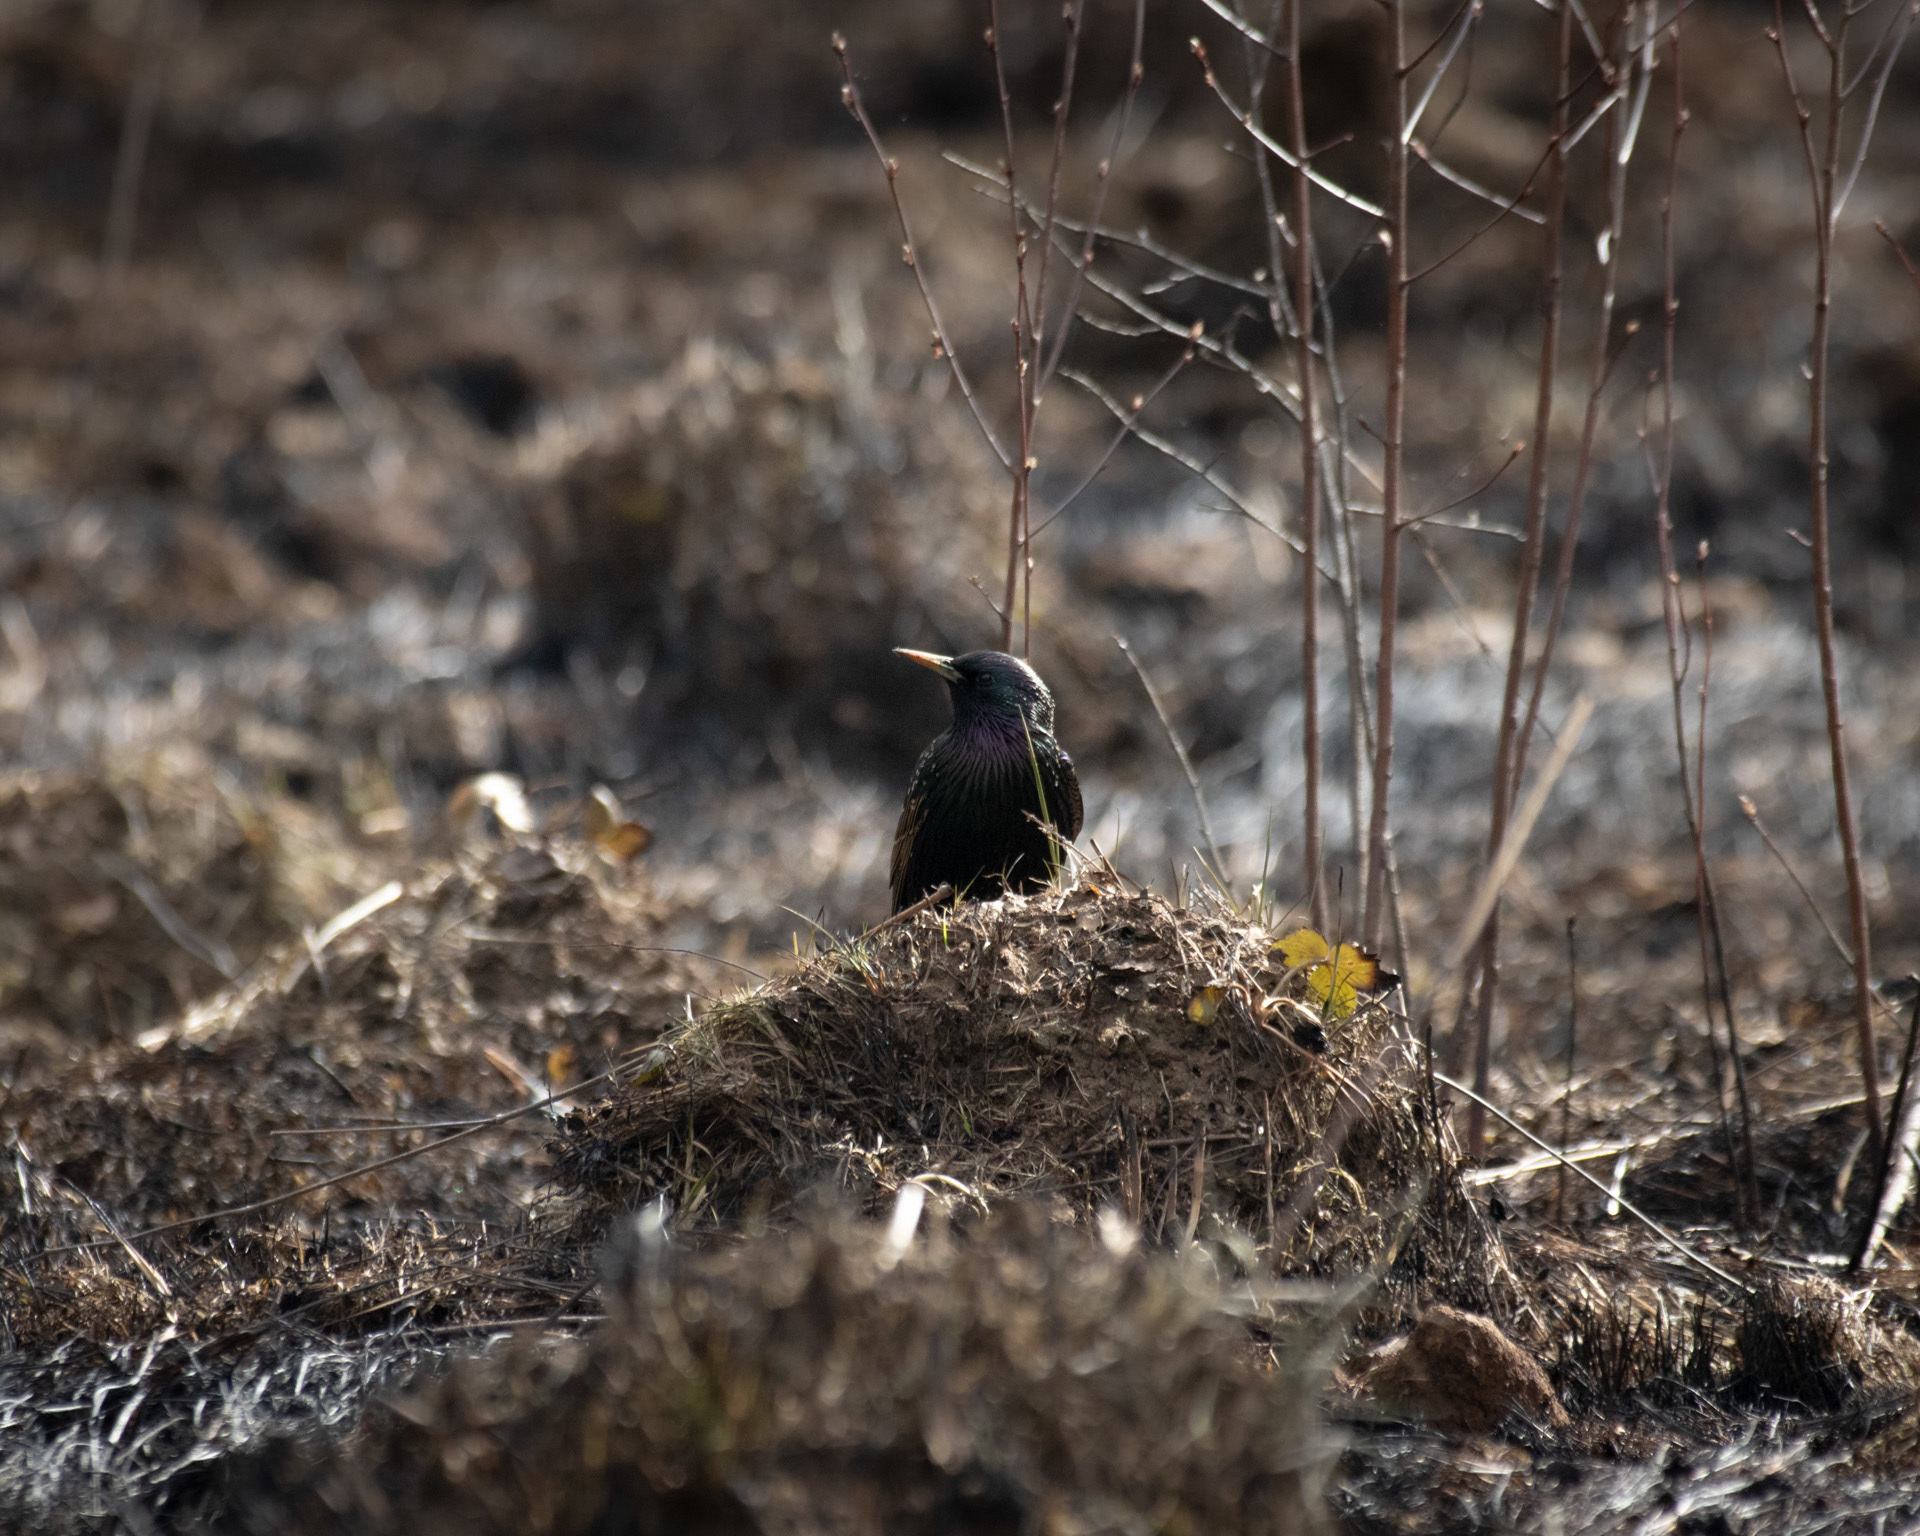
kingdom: Animalia
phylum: Chordata
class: Aves
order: Passeriformes
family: Sturnidae
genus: Sturnus
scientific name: Sturnus vulgaris
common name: Common starling
